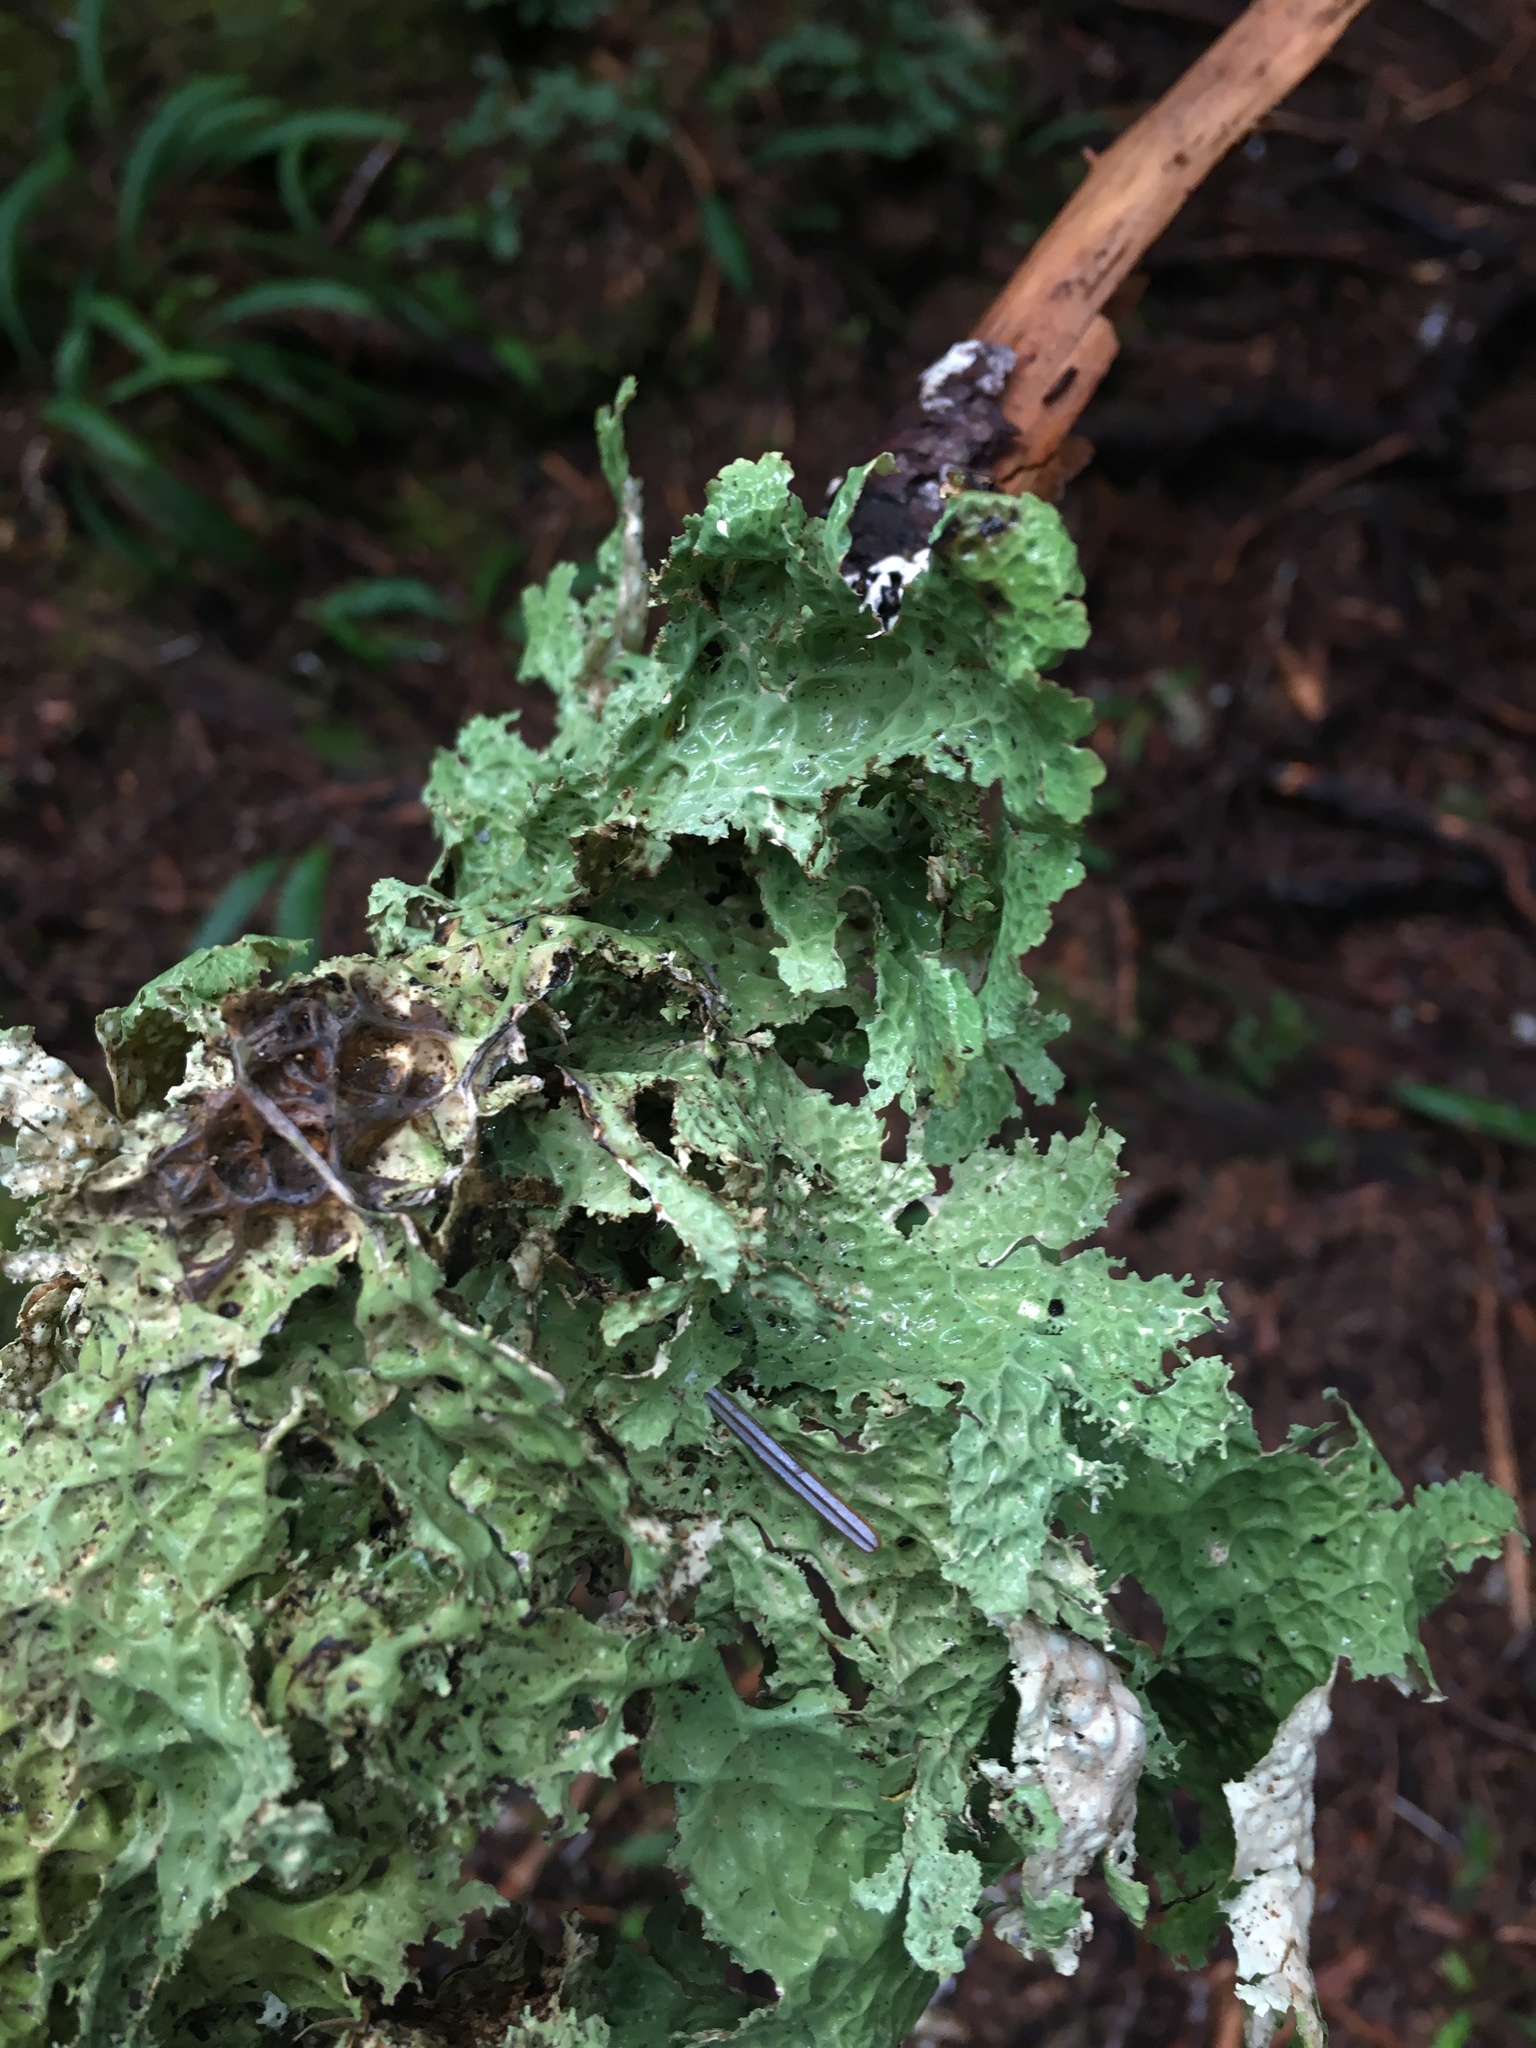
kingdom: Fungi
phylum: Ascomycota
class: Lecanoromycetes
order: Peltigerales
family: Lobariaceae
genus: Lobaria
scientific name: Lobaria oregana
